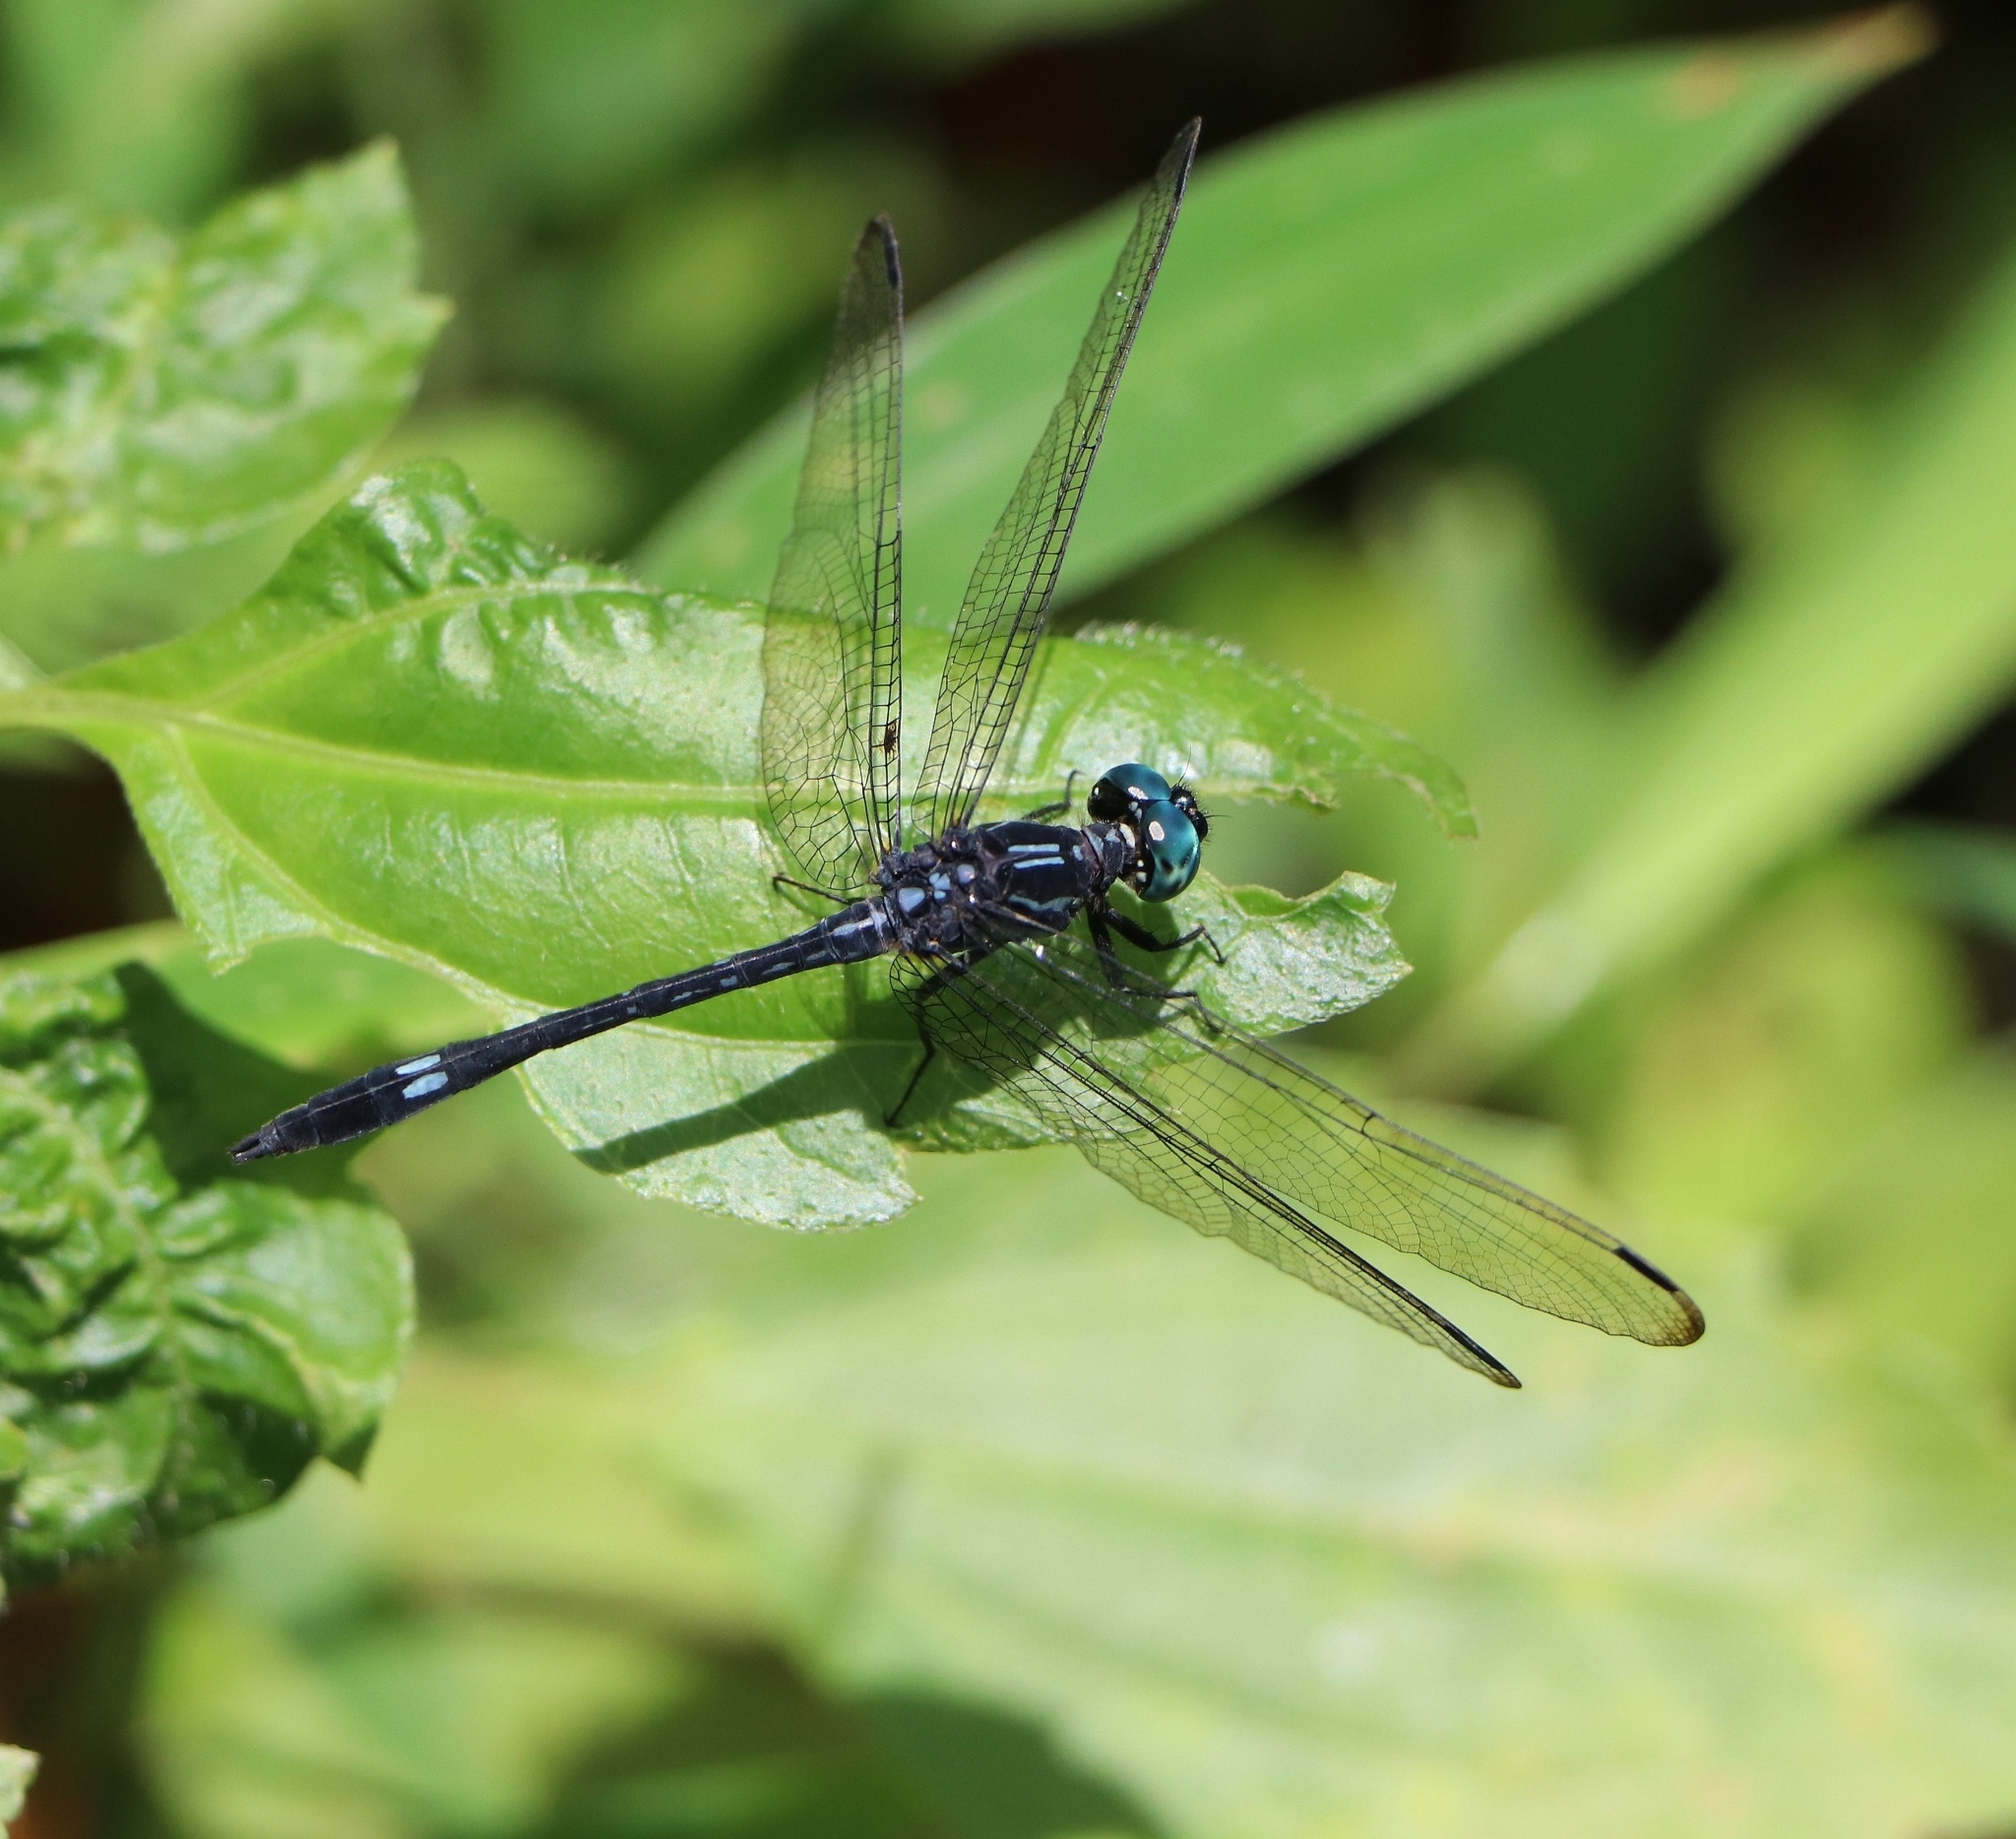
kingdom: Animalia
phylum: Arthropoda
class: Insecta
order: Odonata
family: Libellulidae
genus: Hylaeothemis
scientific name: Hylaeothemis apicalis
